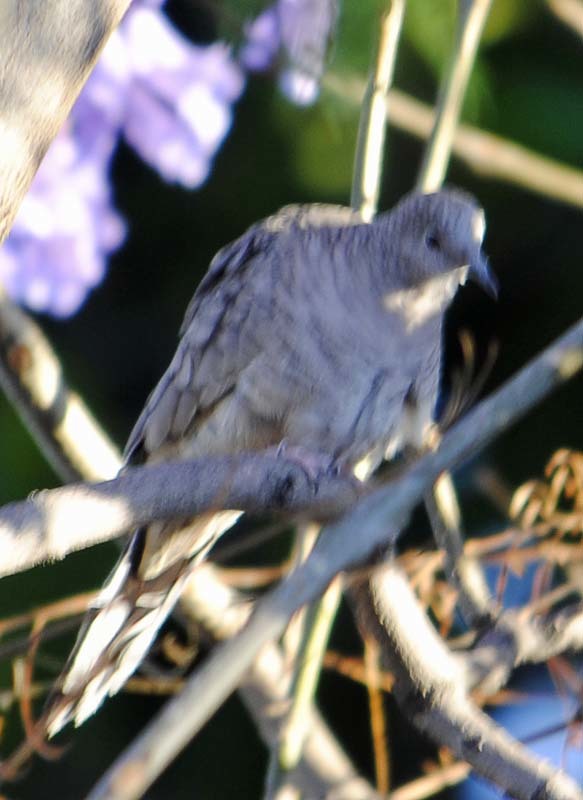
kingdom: Animalia
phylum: Chordata
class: Aves
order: Columbiformes
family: Columbidae
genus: Columbina
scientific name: Columbina inca
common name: Inca dove
